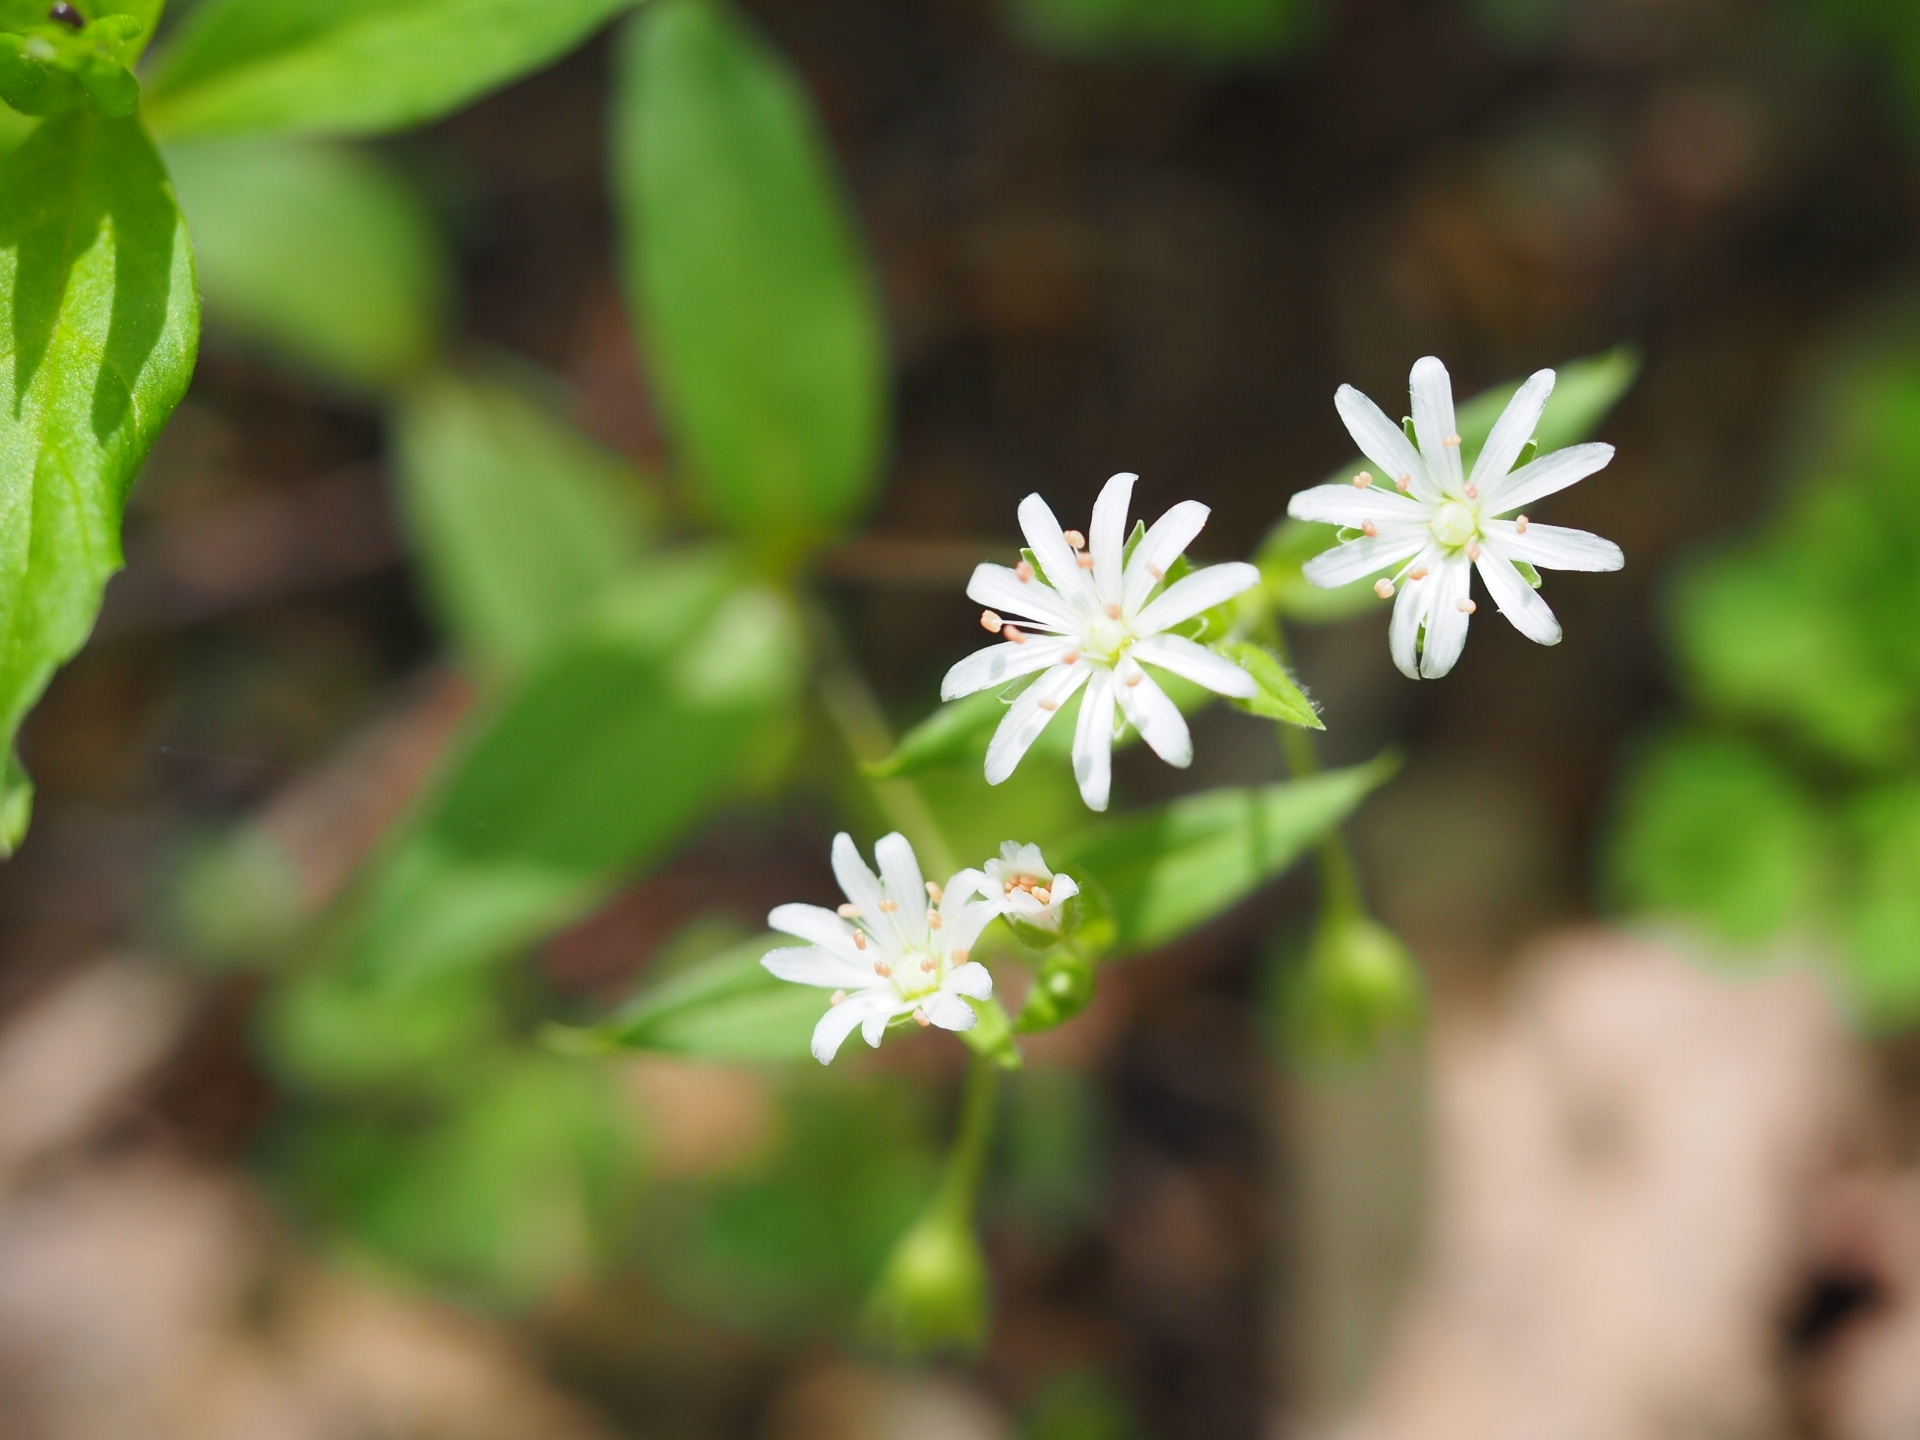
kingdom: Plantae
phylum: Tracheophyta
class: Magnoliopsida
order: Caryophyllales
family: Caryophyllaceae
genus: Stellaria
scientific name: Stellaria pubera
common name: Star chickweed
